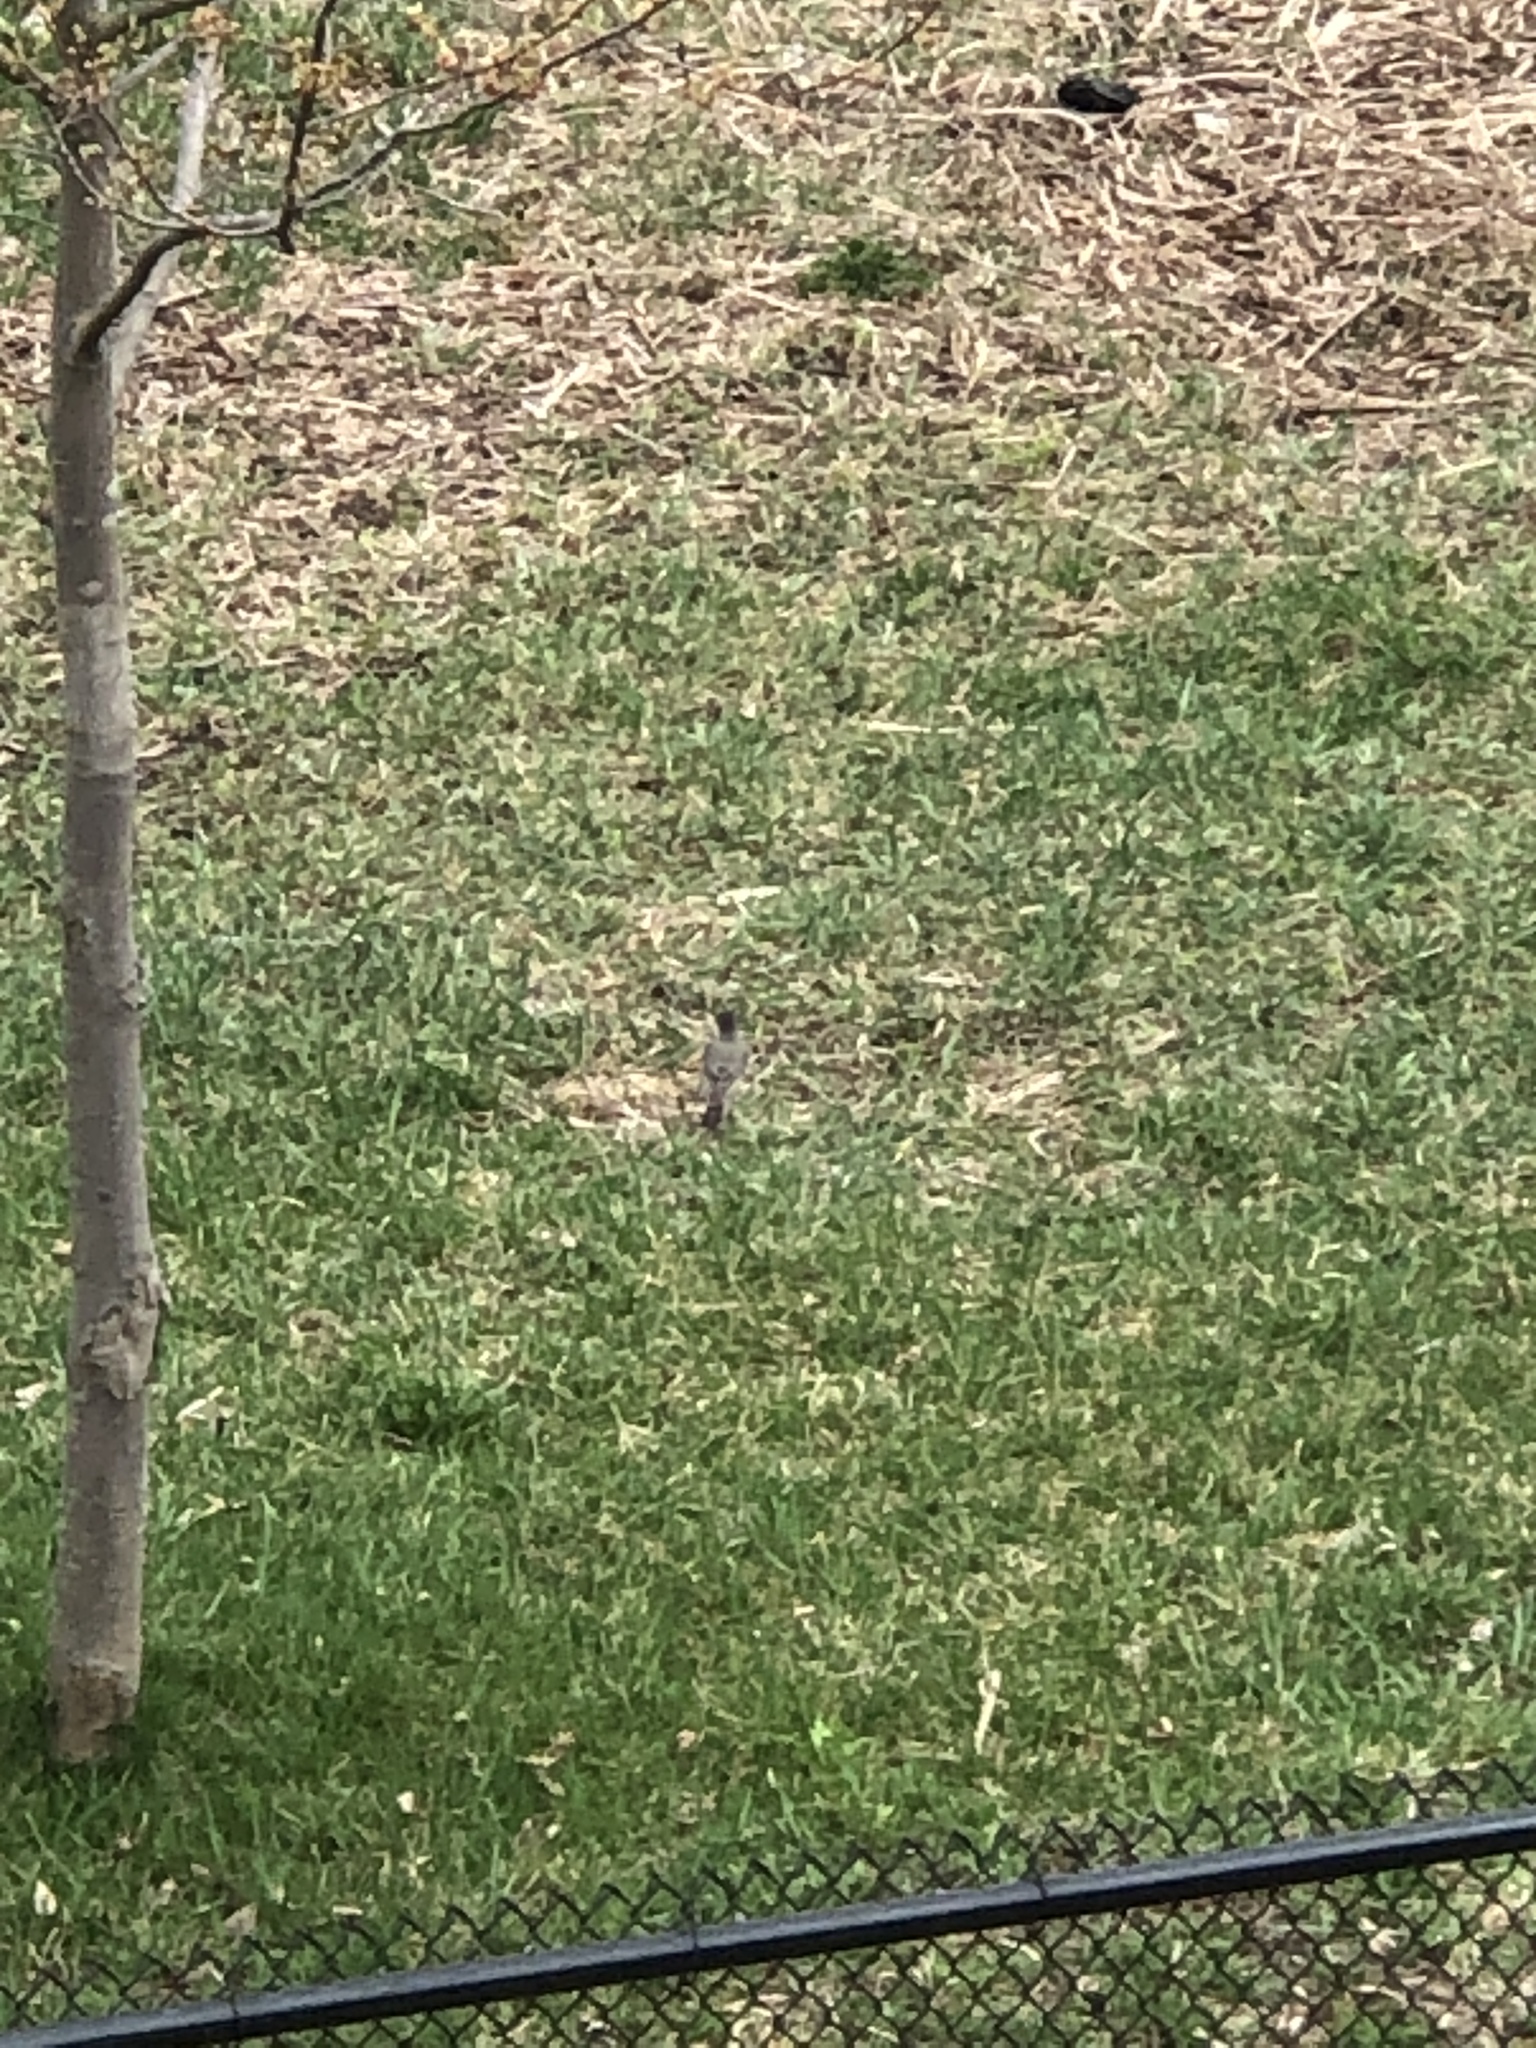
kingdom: Animalia
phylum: Chordata
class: Aves
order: Passeriformes
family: Turdidae
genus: Turdus
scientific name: Turdus migratorius
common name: American robin
